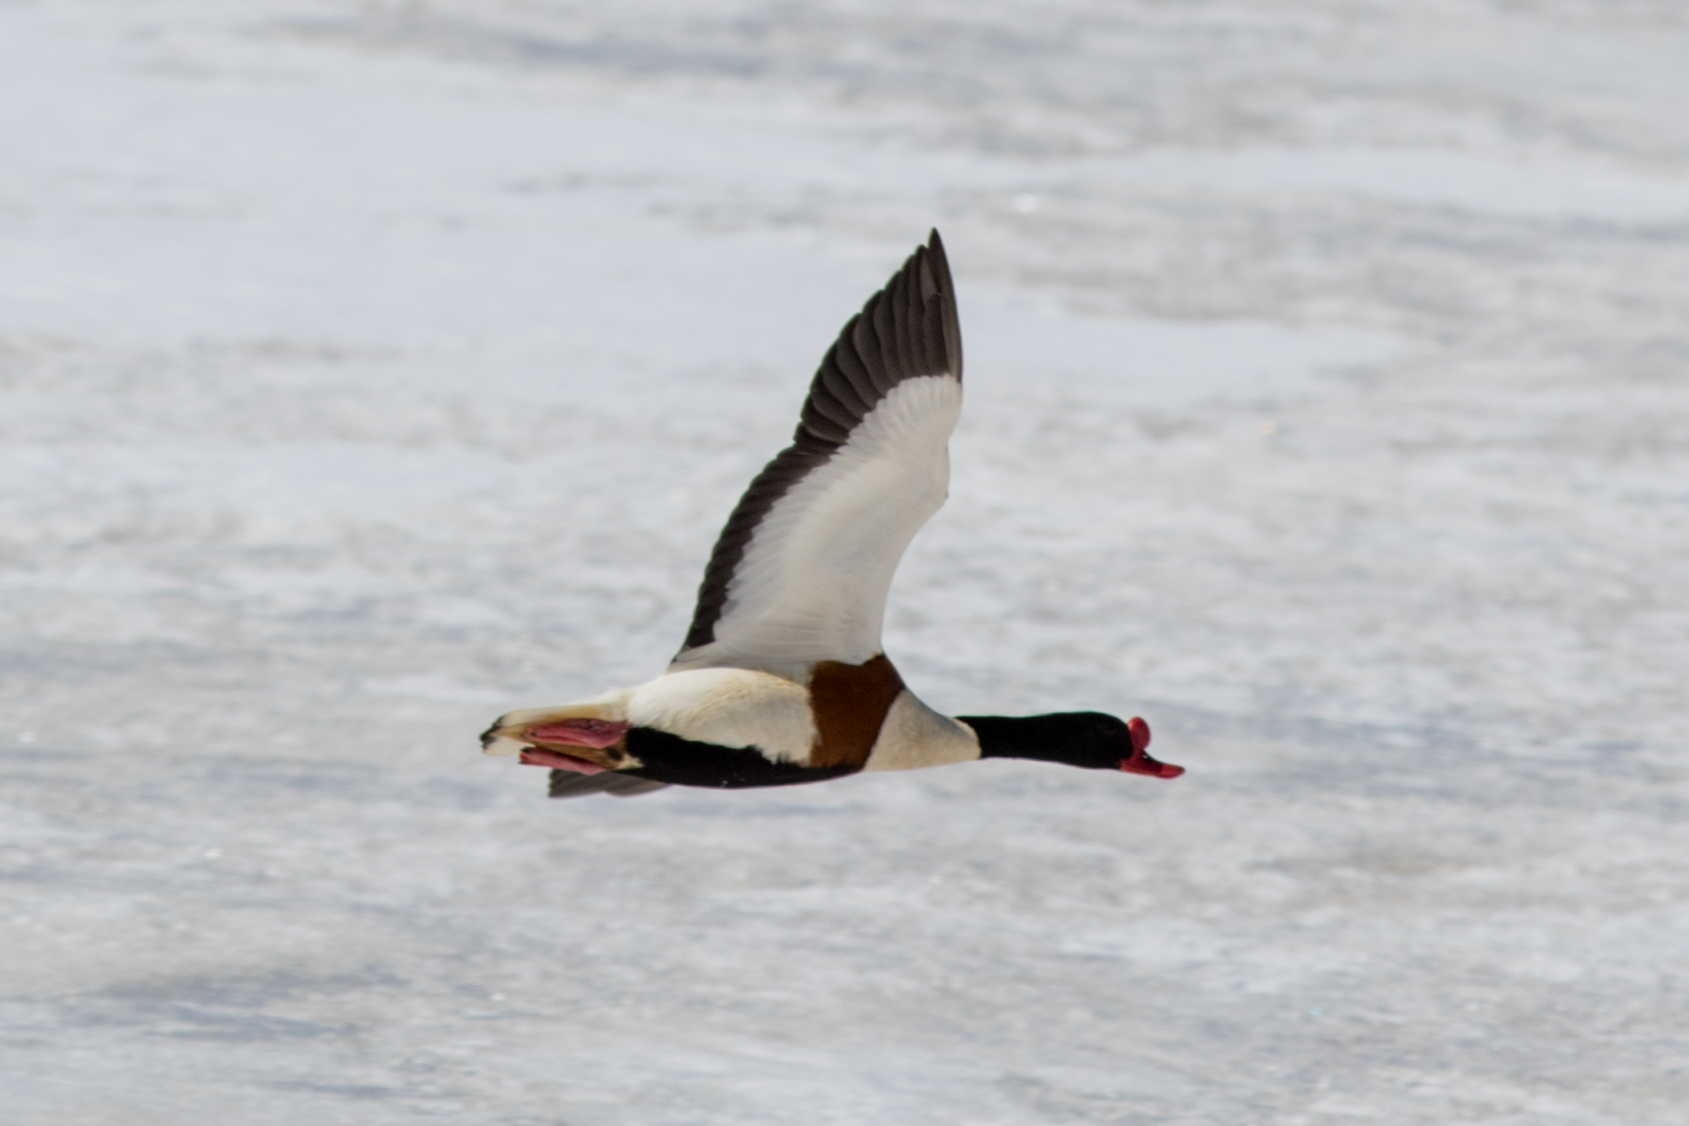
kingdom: Animalia
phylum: Chordata
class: Aves
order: Anseriformes
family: Anatidae
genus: Tadorna
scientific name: Tadorna tadorna
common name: Common shelduck
